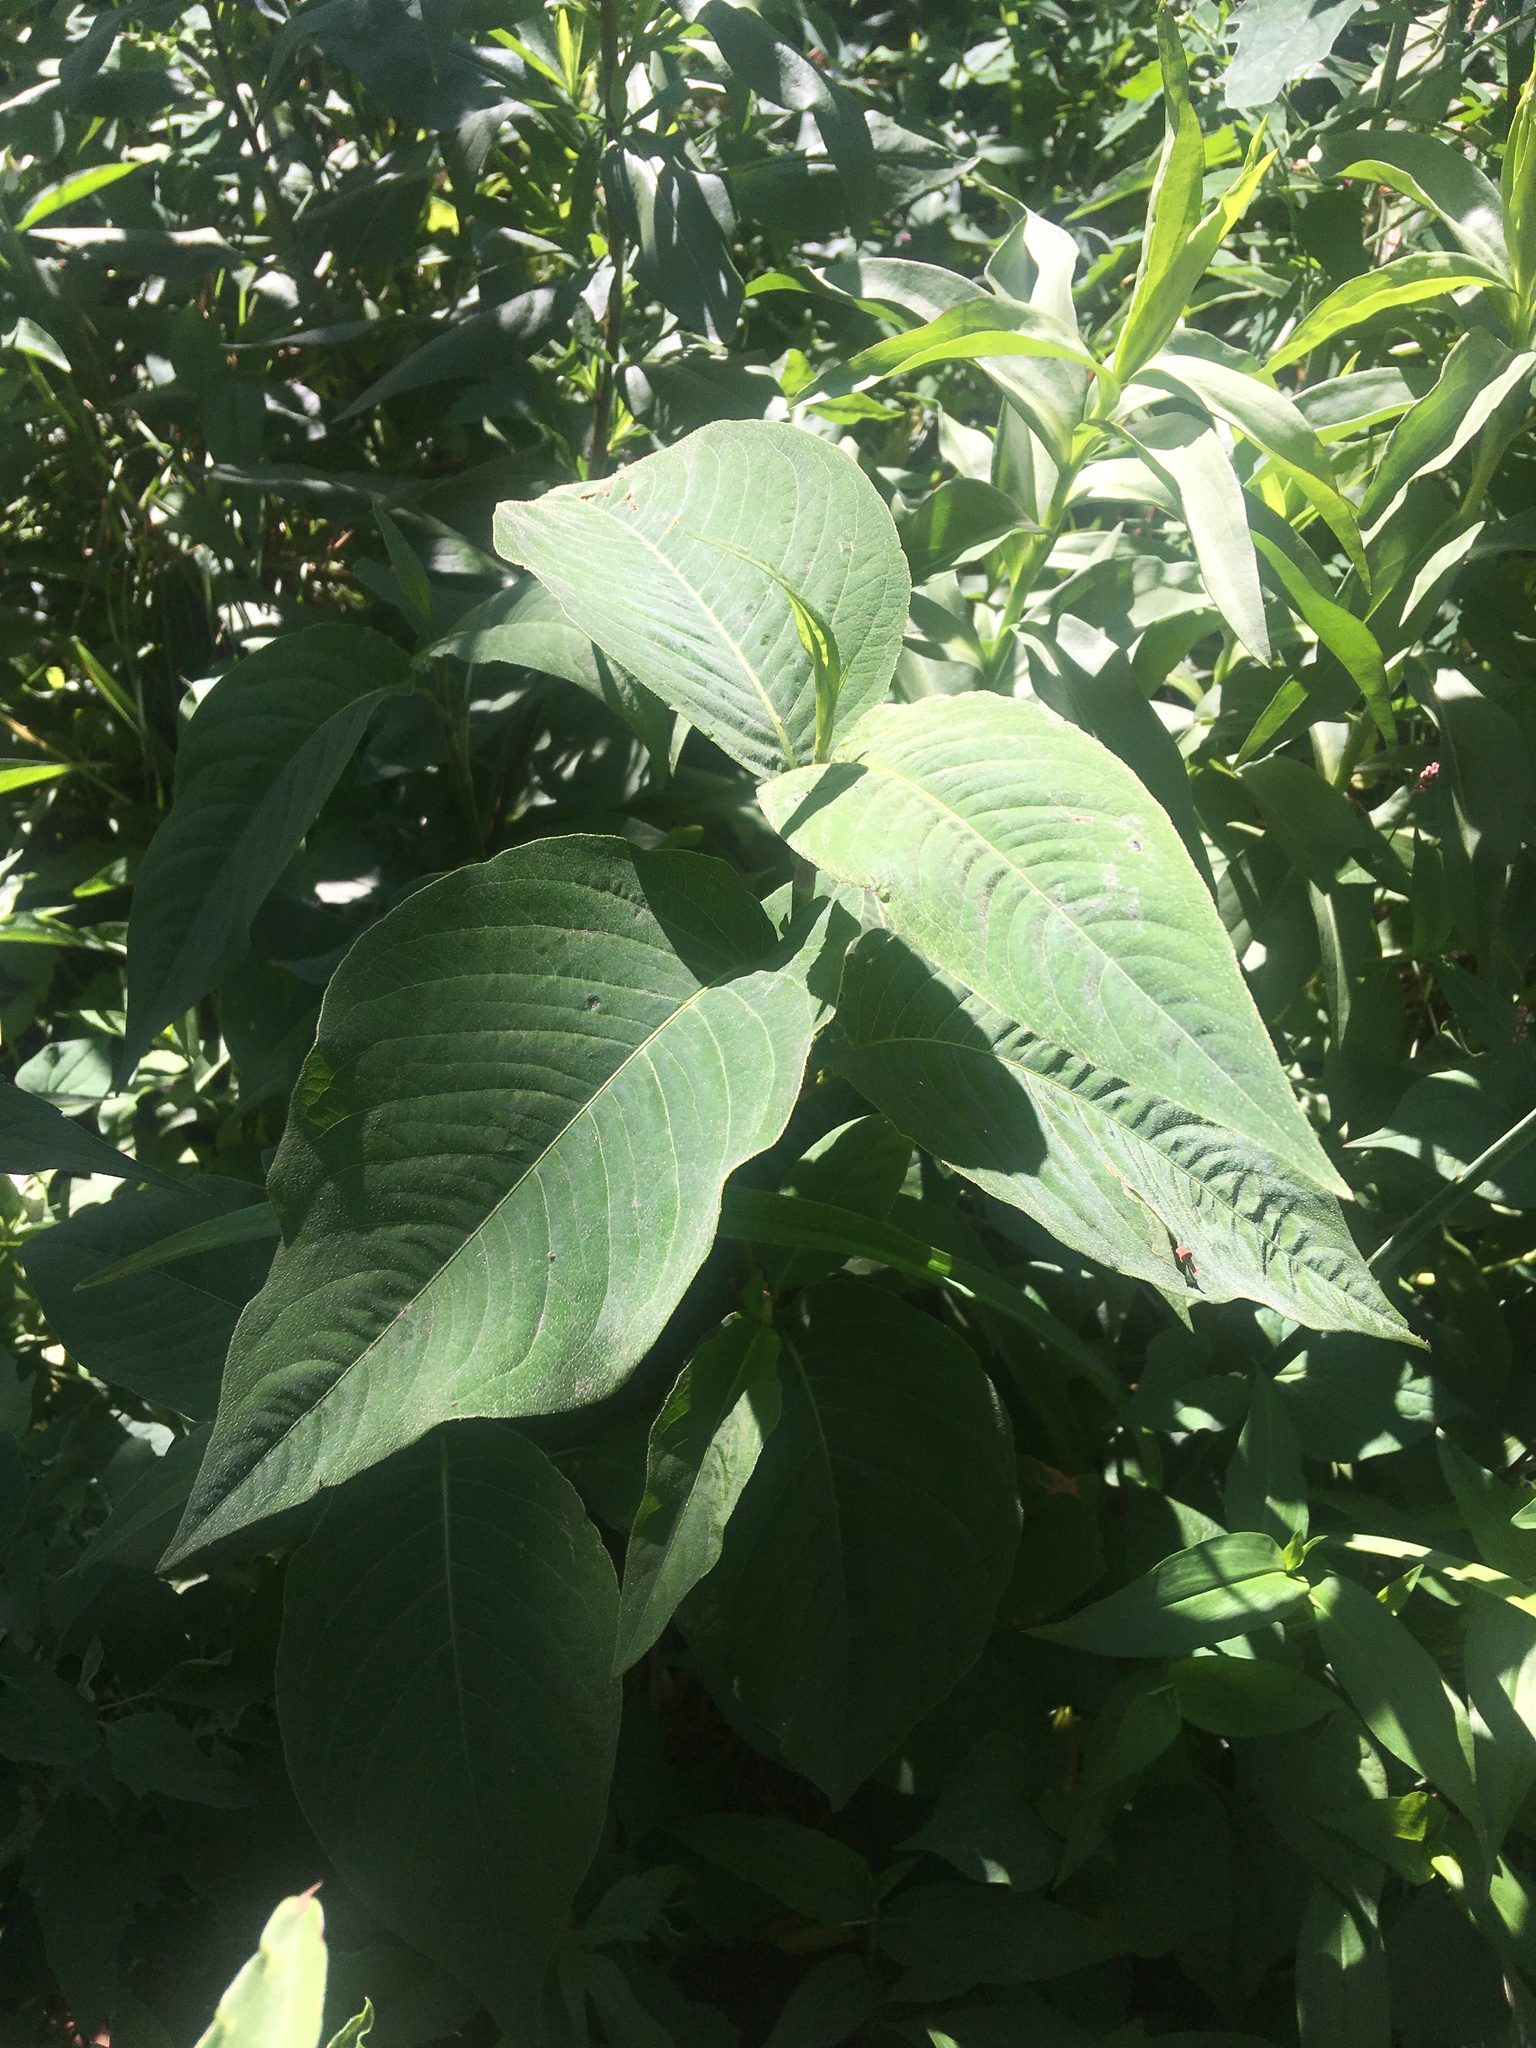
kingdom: Plantae
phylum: Tracheophyta
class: Magnoliopsida
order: Caryophyllales
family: Polygonaceae
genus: Persicaria
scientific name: Persicaria virginiana
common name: Jumpseed
